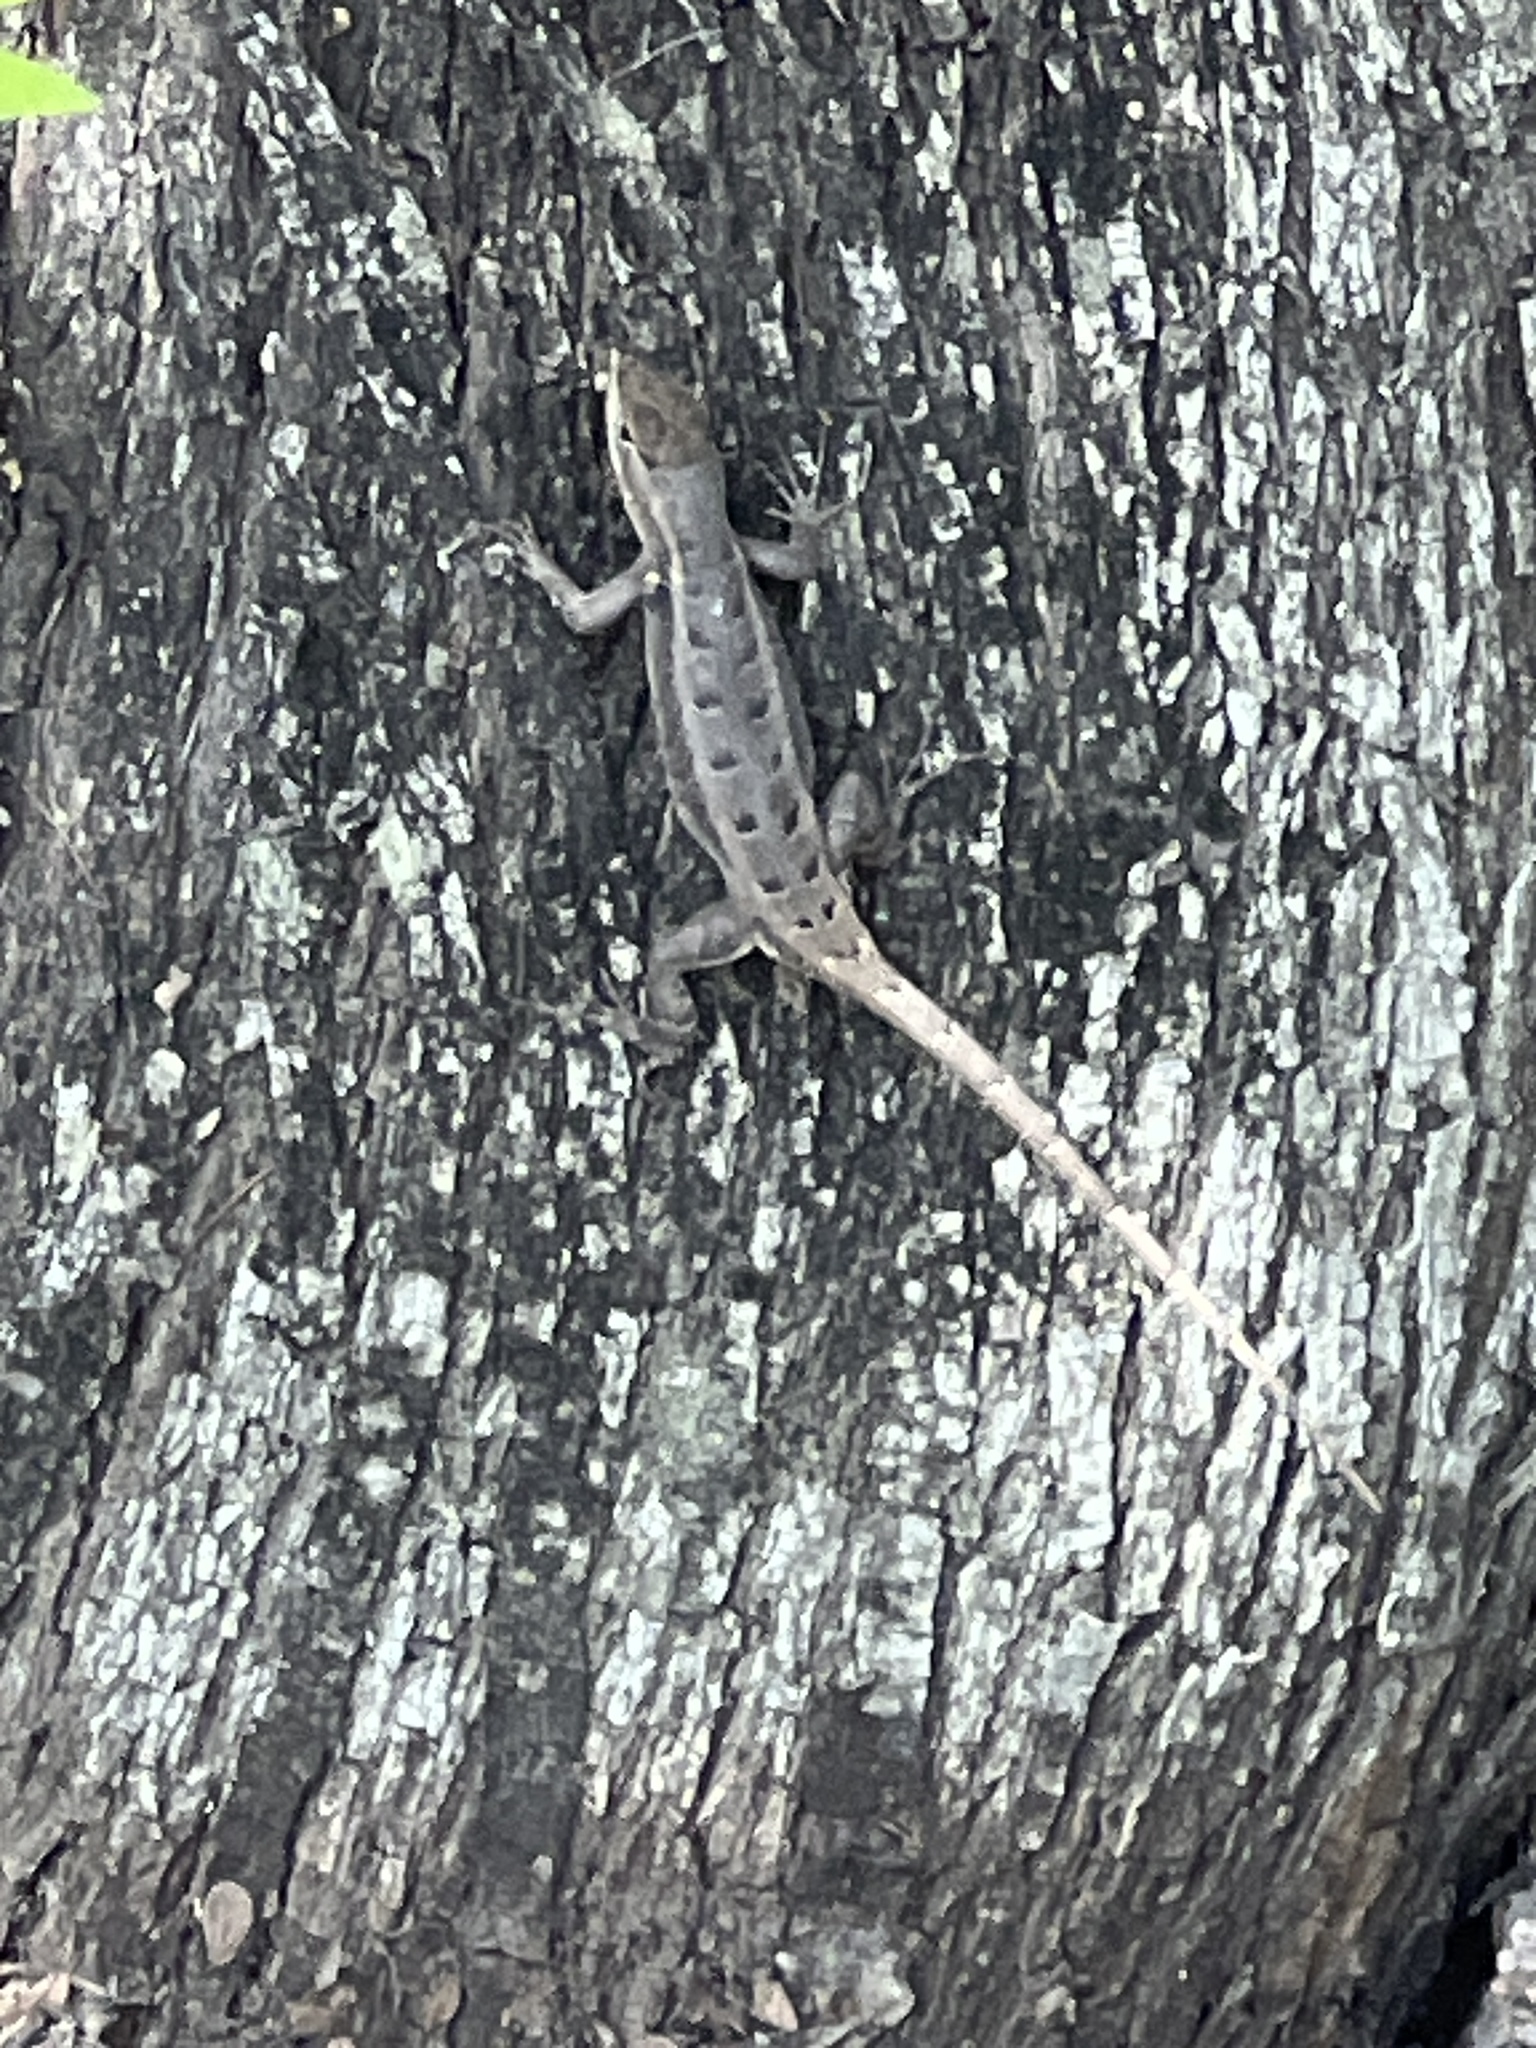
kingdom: Animalia
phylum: Chordata
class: Squamata
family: Phrynosomatidae
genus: Sceloporus
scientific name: Sceloporus variabilis
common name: Rosebelly lizard
